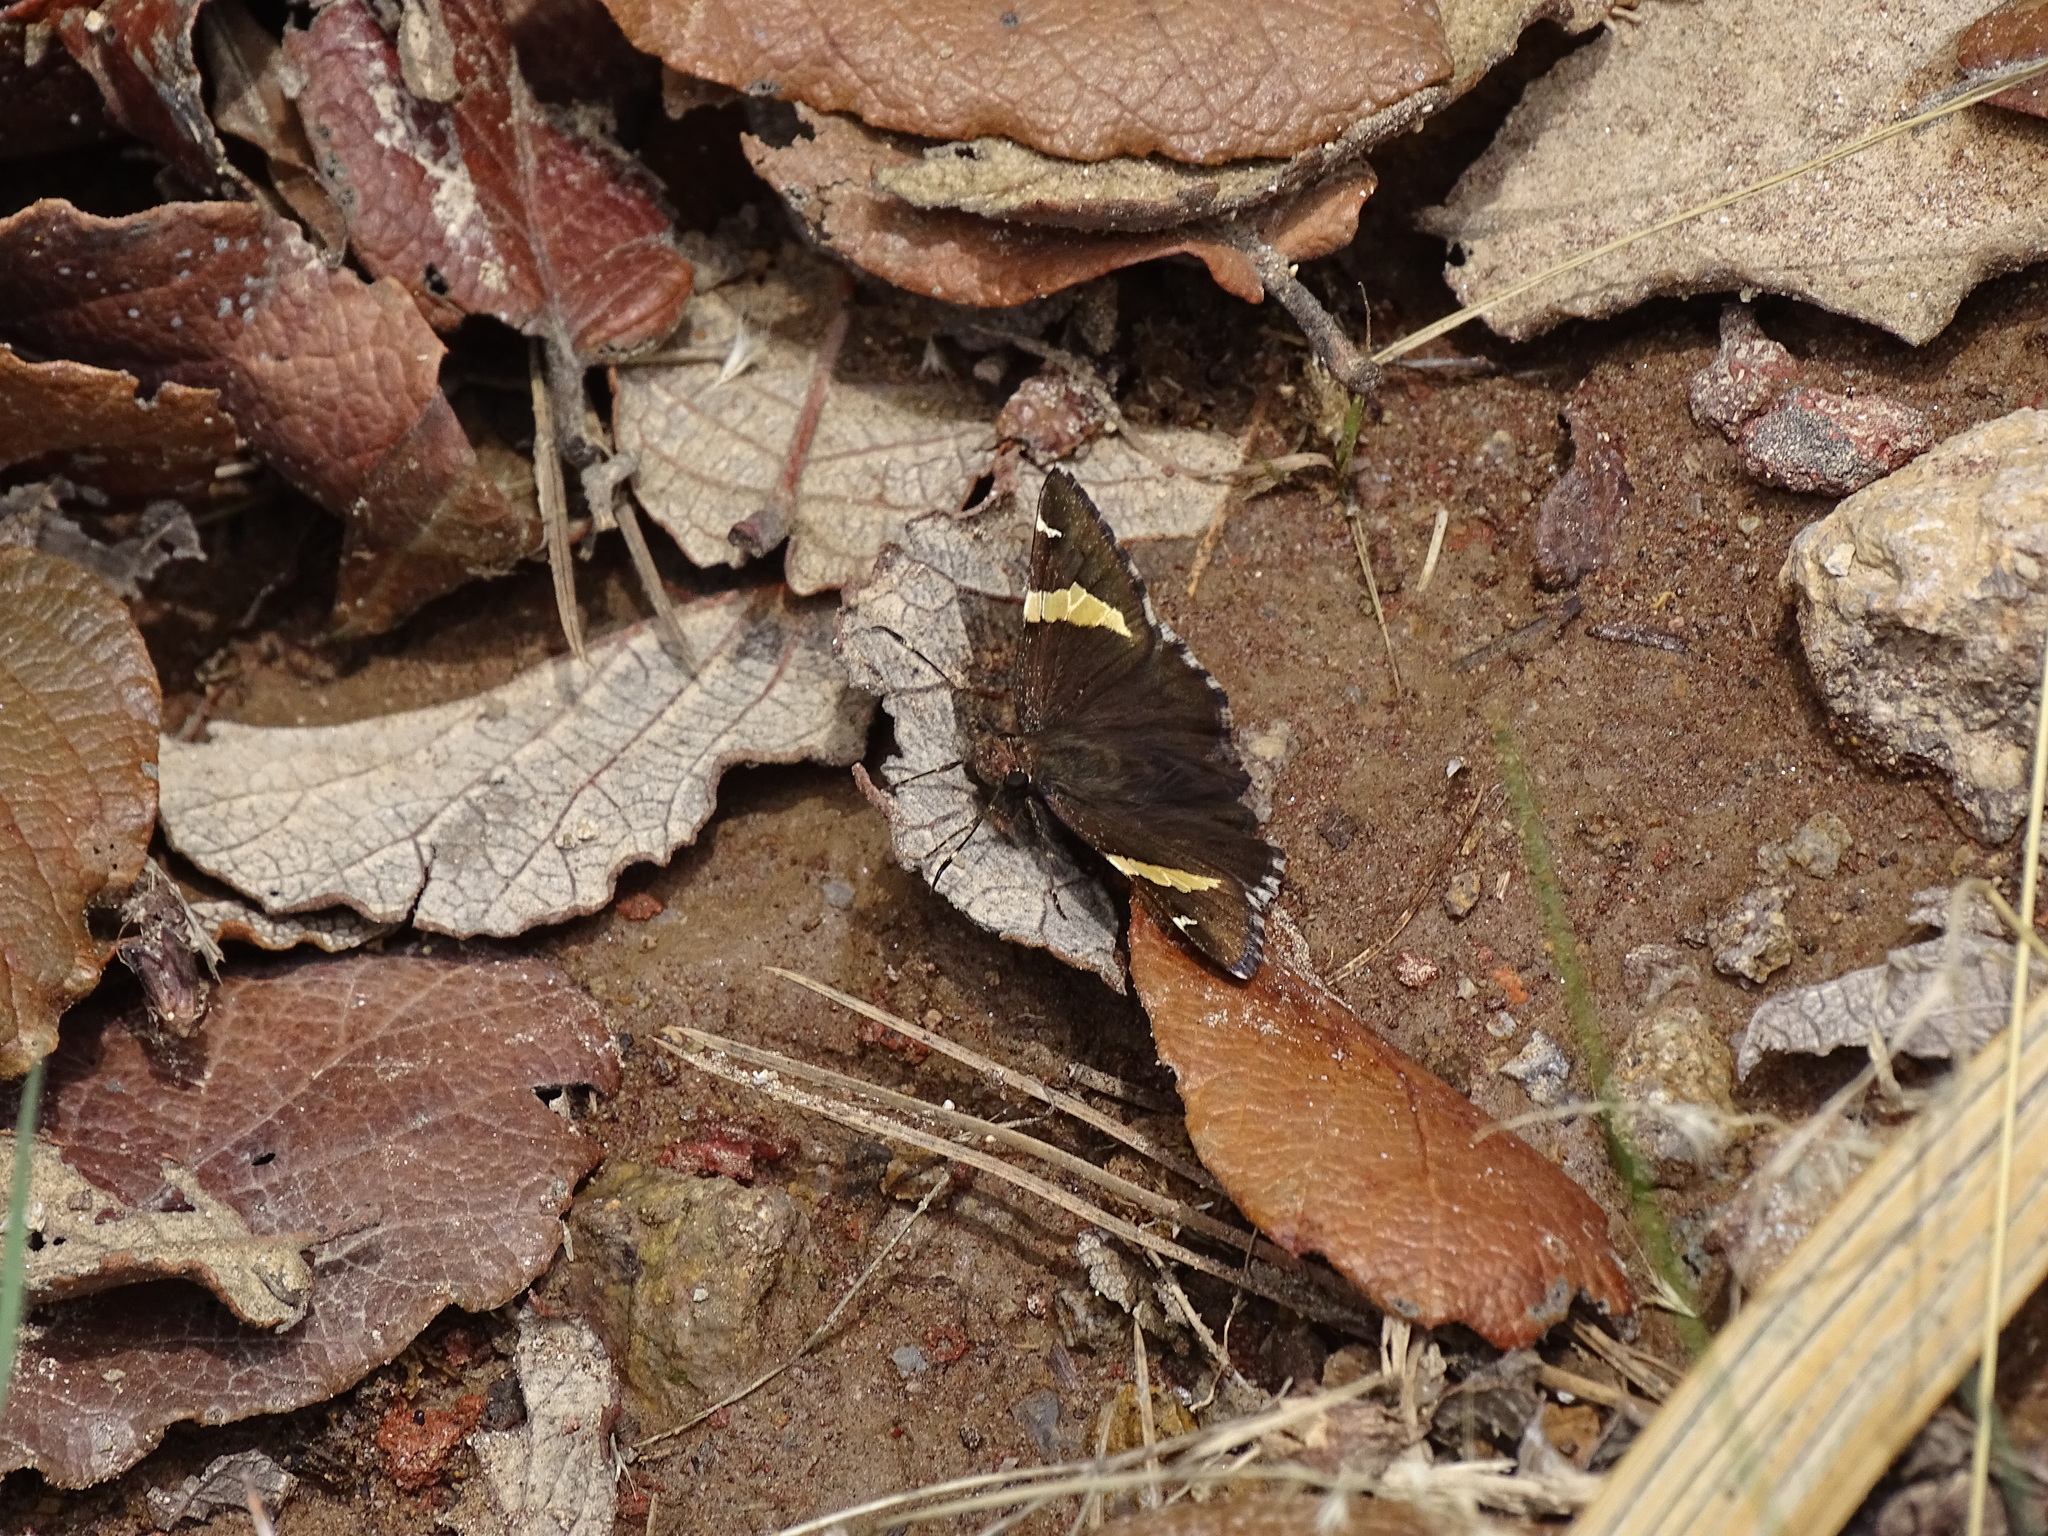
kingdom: Animalia
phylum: Arthropoda
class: Insecta
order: Lepidoptera
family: Hesperiidae
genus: Thorybes
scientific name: Thorybes pseudocellus
